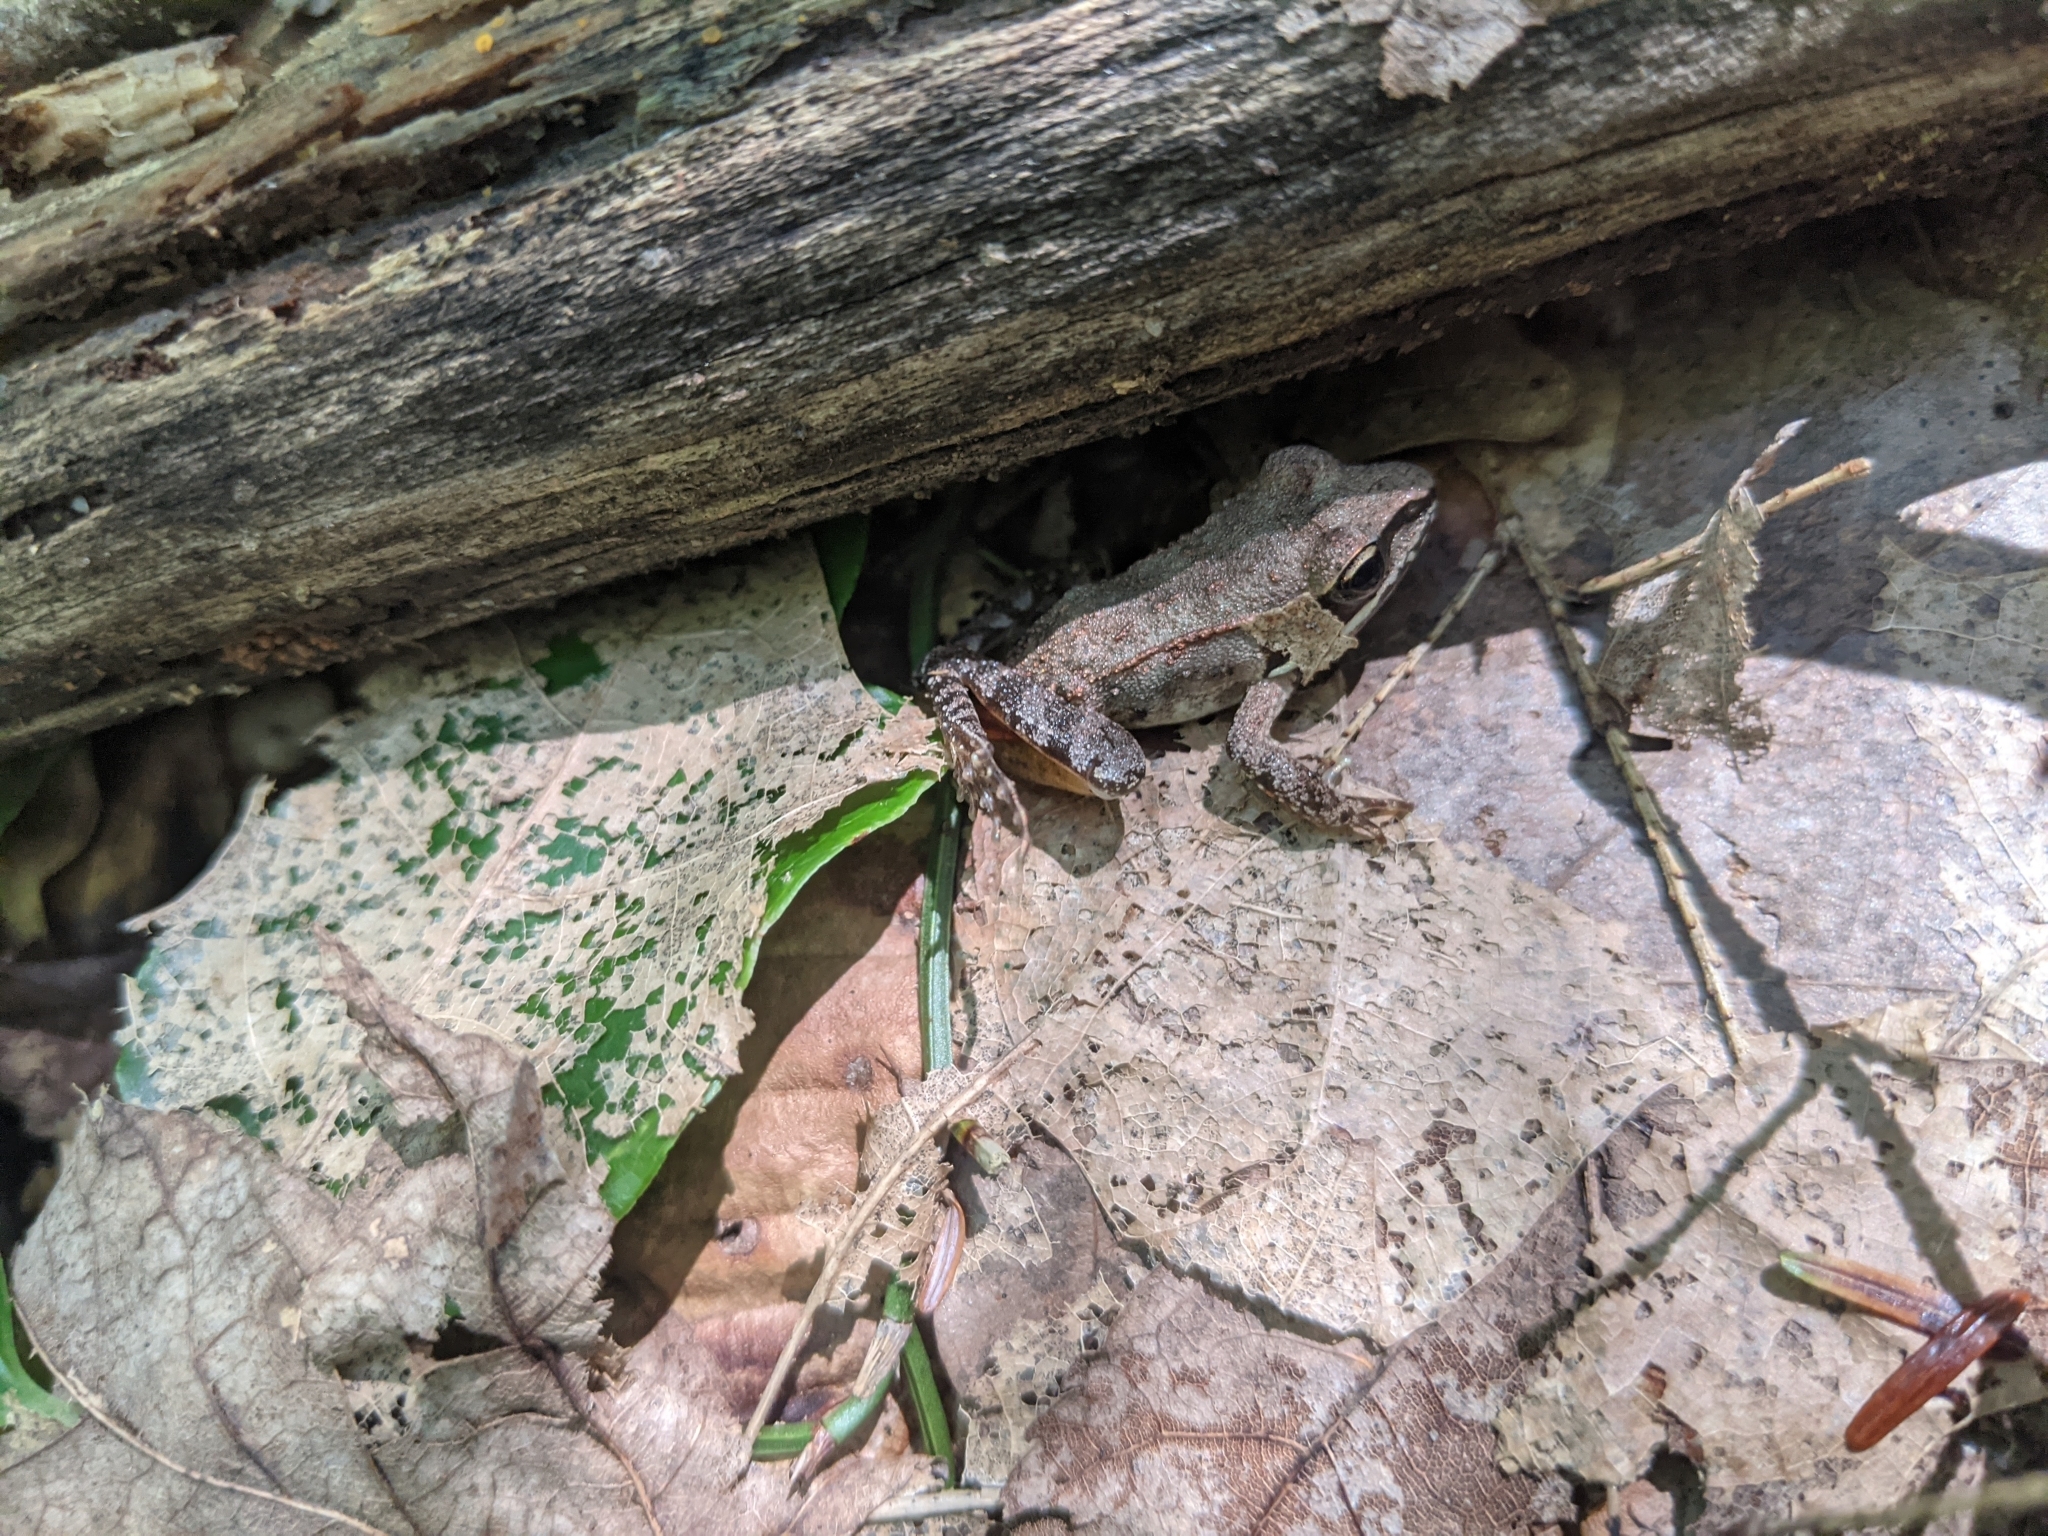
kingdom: Animalia
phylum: Chordata
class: Amphibia
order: Anura
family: Ranidae
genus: Lithobates
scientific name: Lithobates sylvaticus
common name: Wood frog
